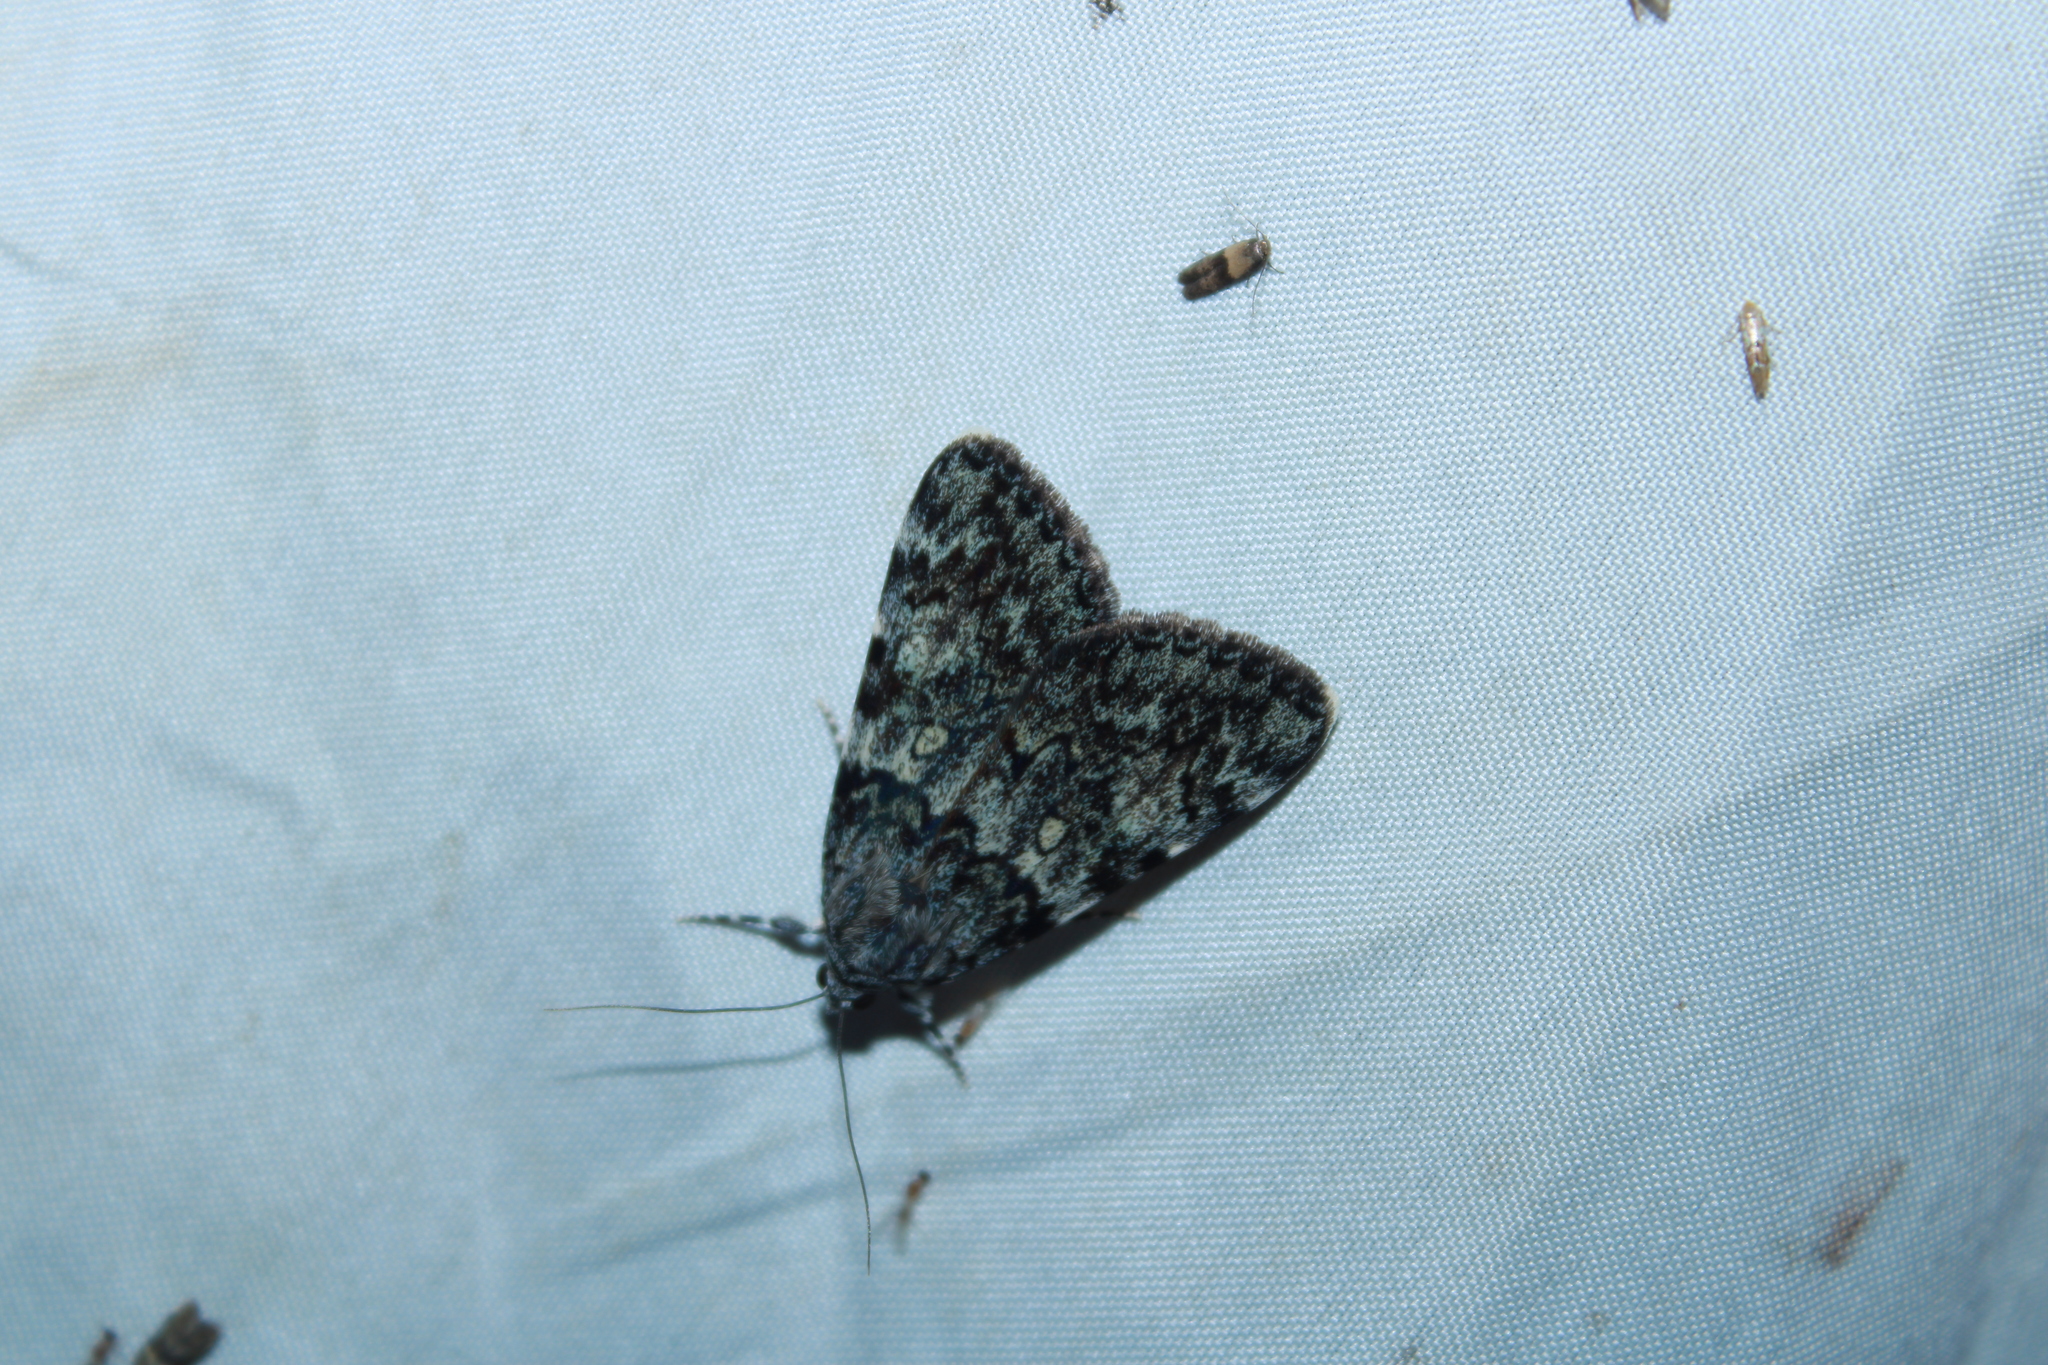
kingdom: Animalia
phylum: Arthropoda
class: Insecta
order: Lepidoptera
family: Erebidae
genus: Catocala
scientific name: Catocala lineella
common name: Little lined underwing
